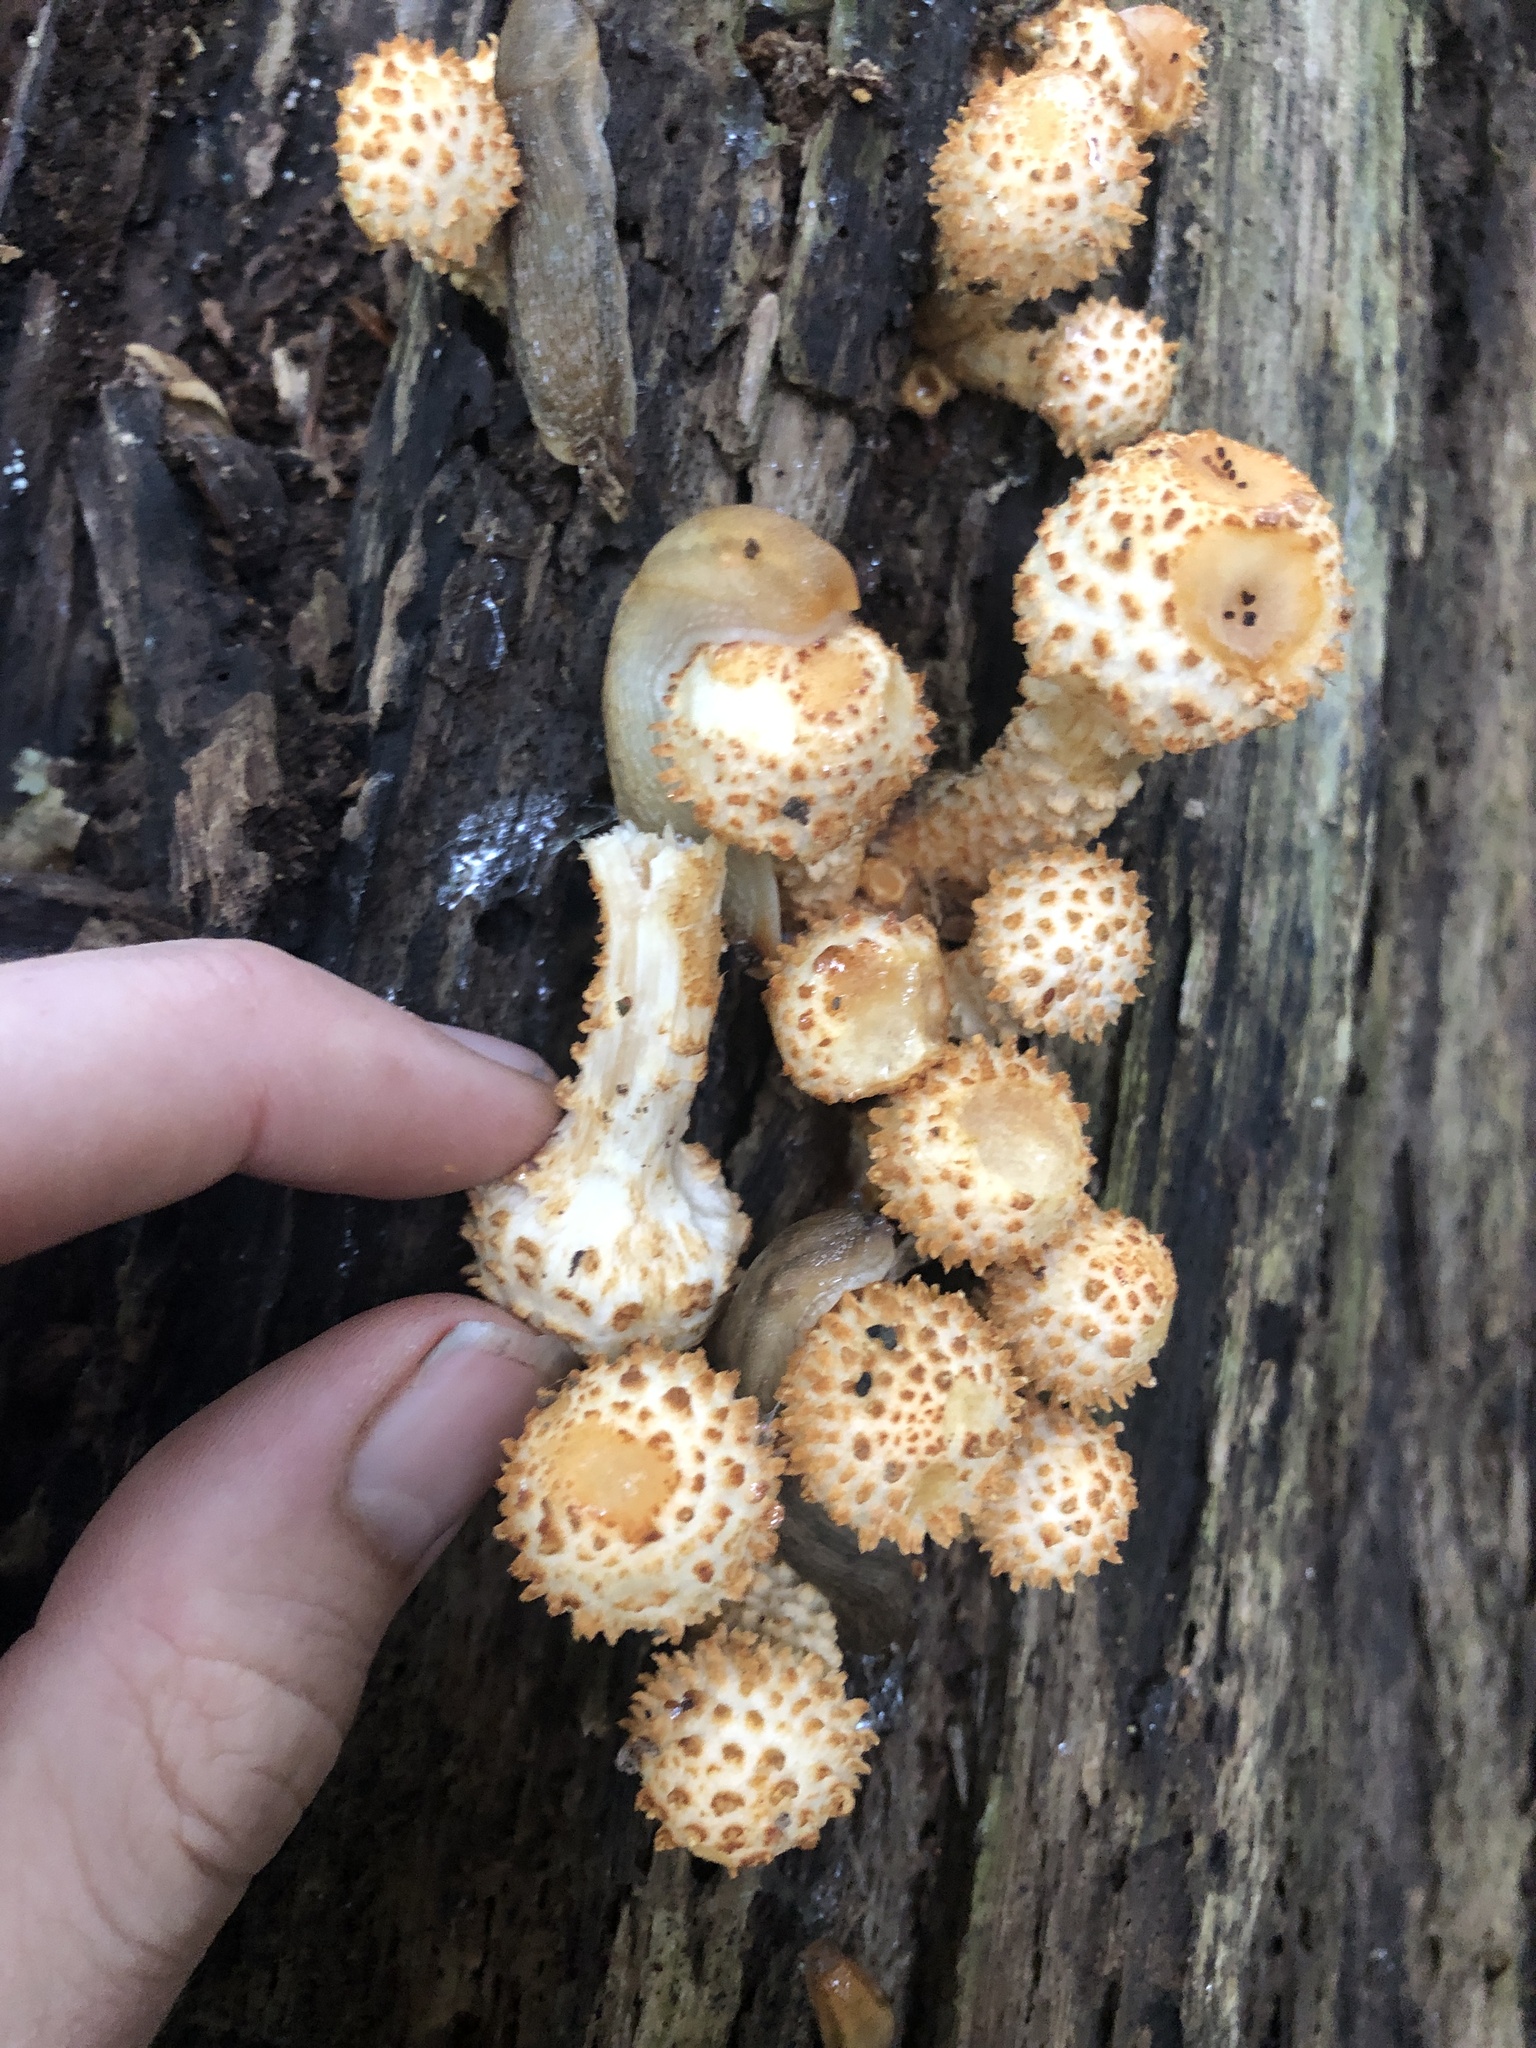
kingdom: Fungi
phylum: Basidiomycota
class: Agaricomycetes
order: Agaricales
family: Strophariaceae
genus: Pholiota
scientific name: Pholiota squarrosoides
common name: Sharp-scaly pholiota
